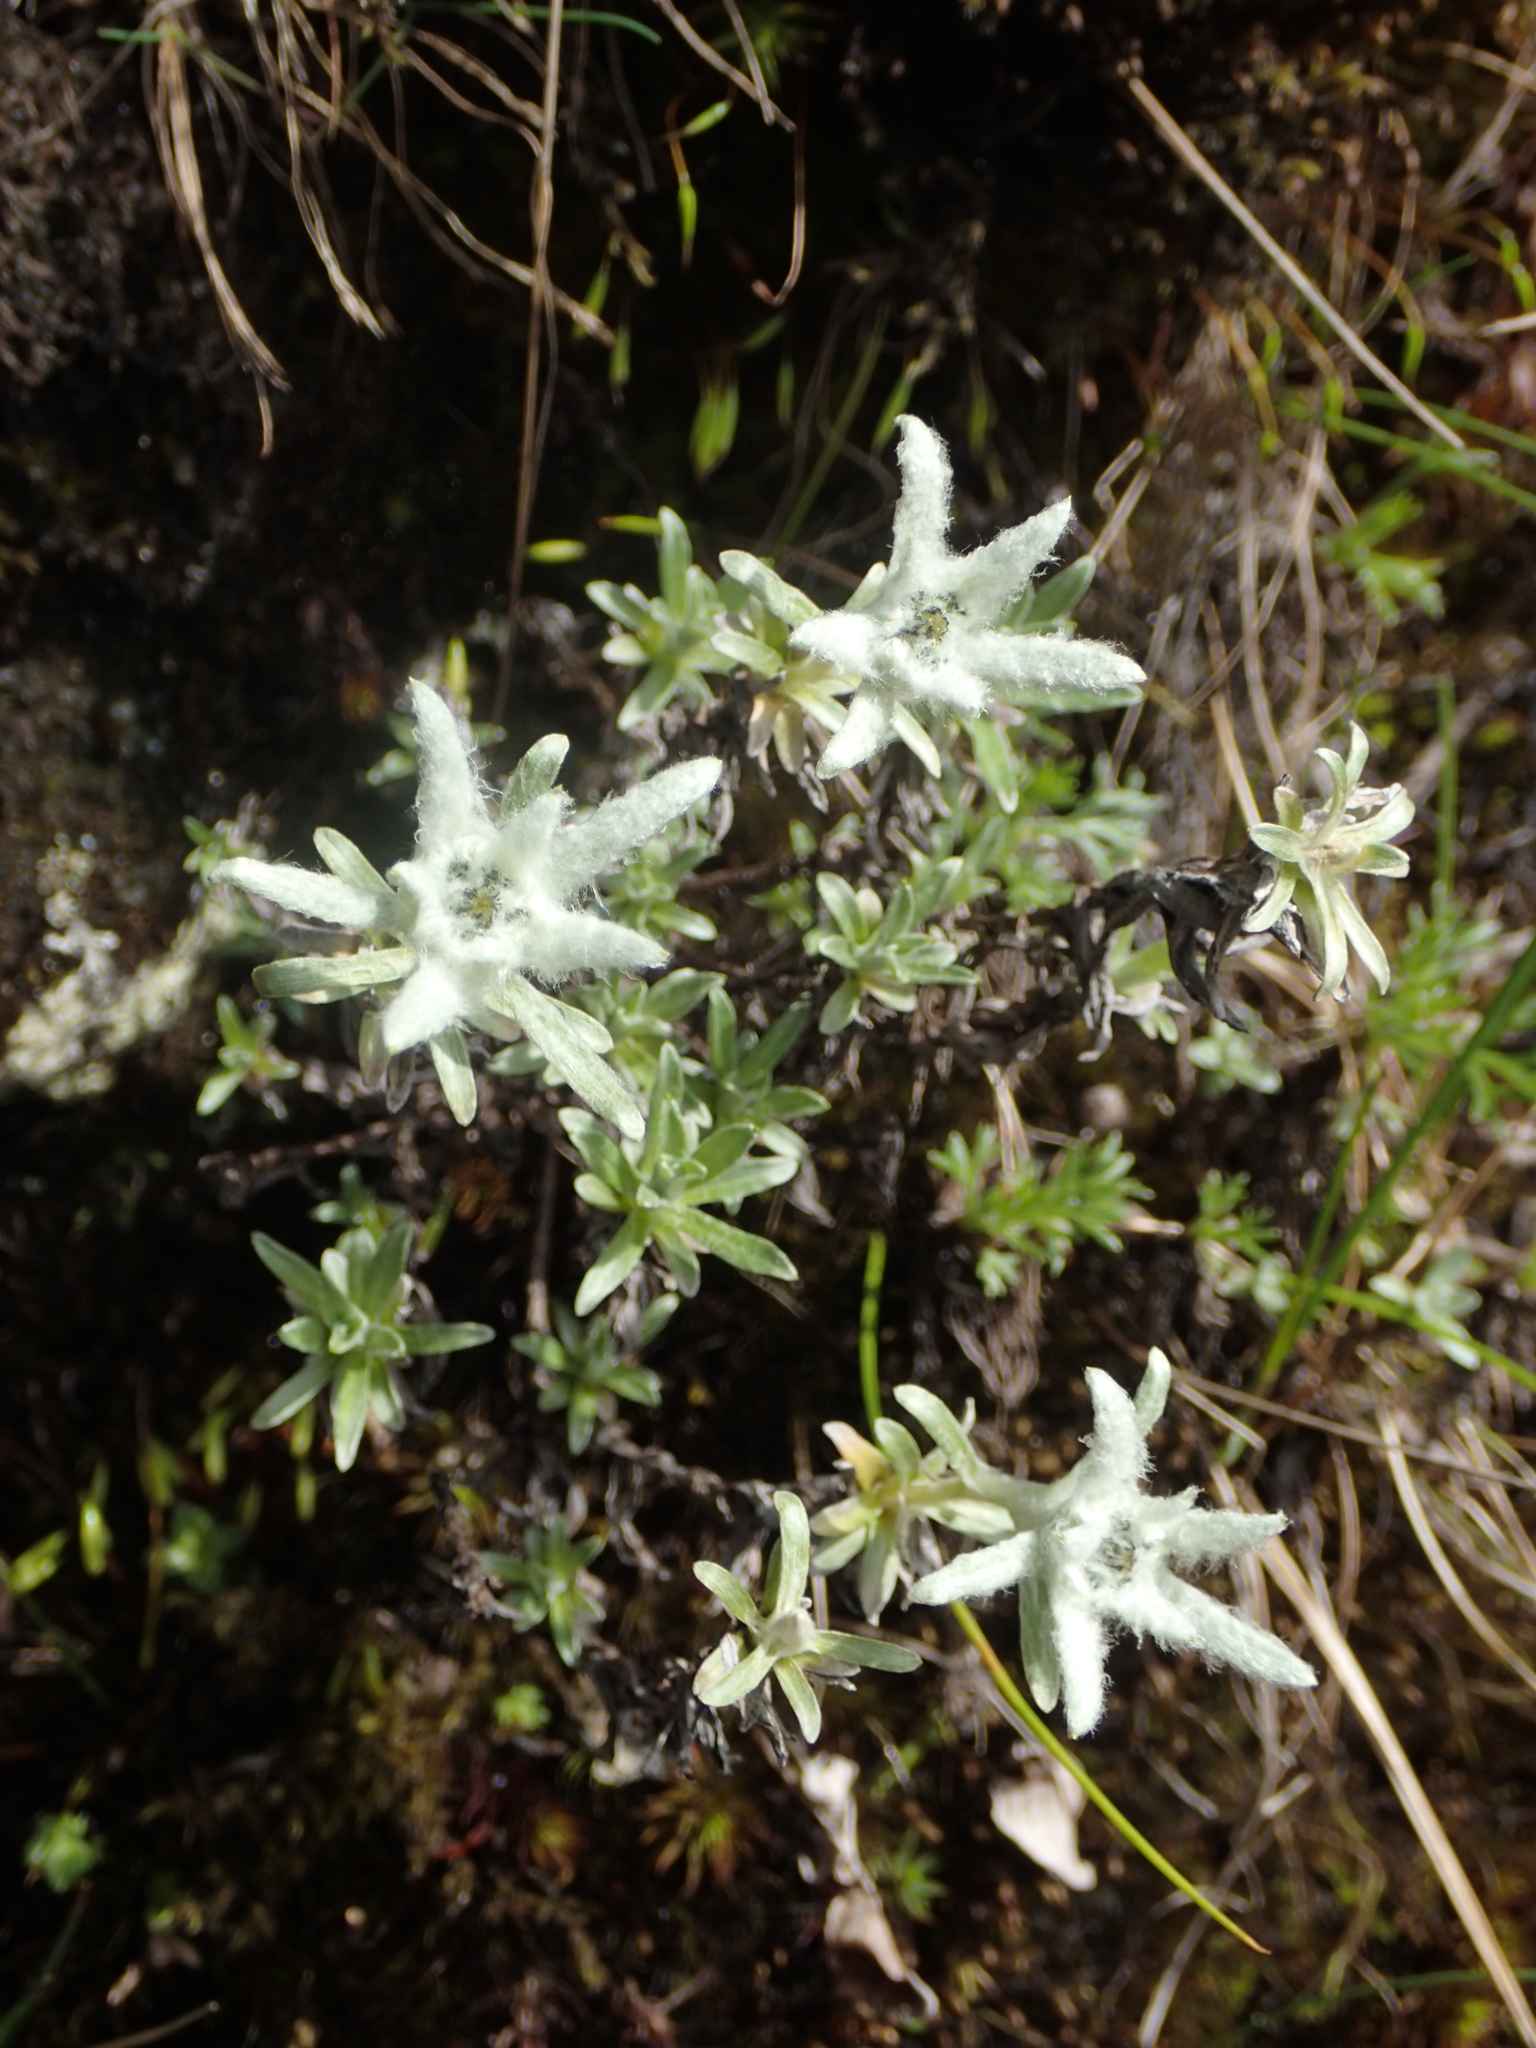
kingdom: Plantae
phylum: Tracheophyta
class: Magnoliopsida
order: Asterales
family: Asteraceae
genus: Leontopodium
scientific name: Leontopodium microphyllum
